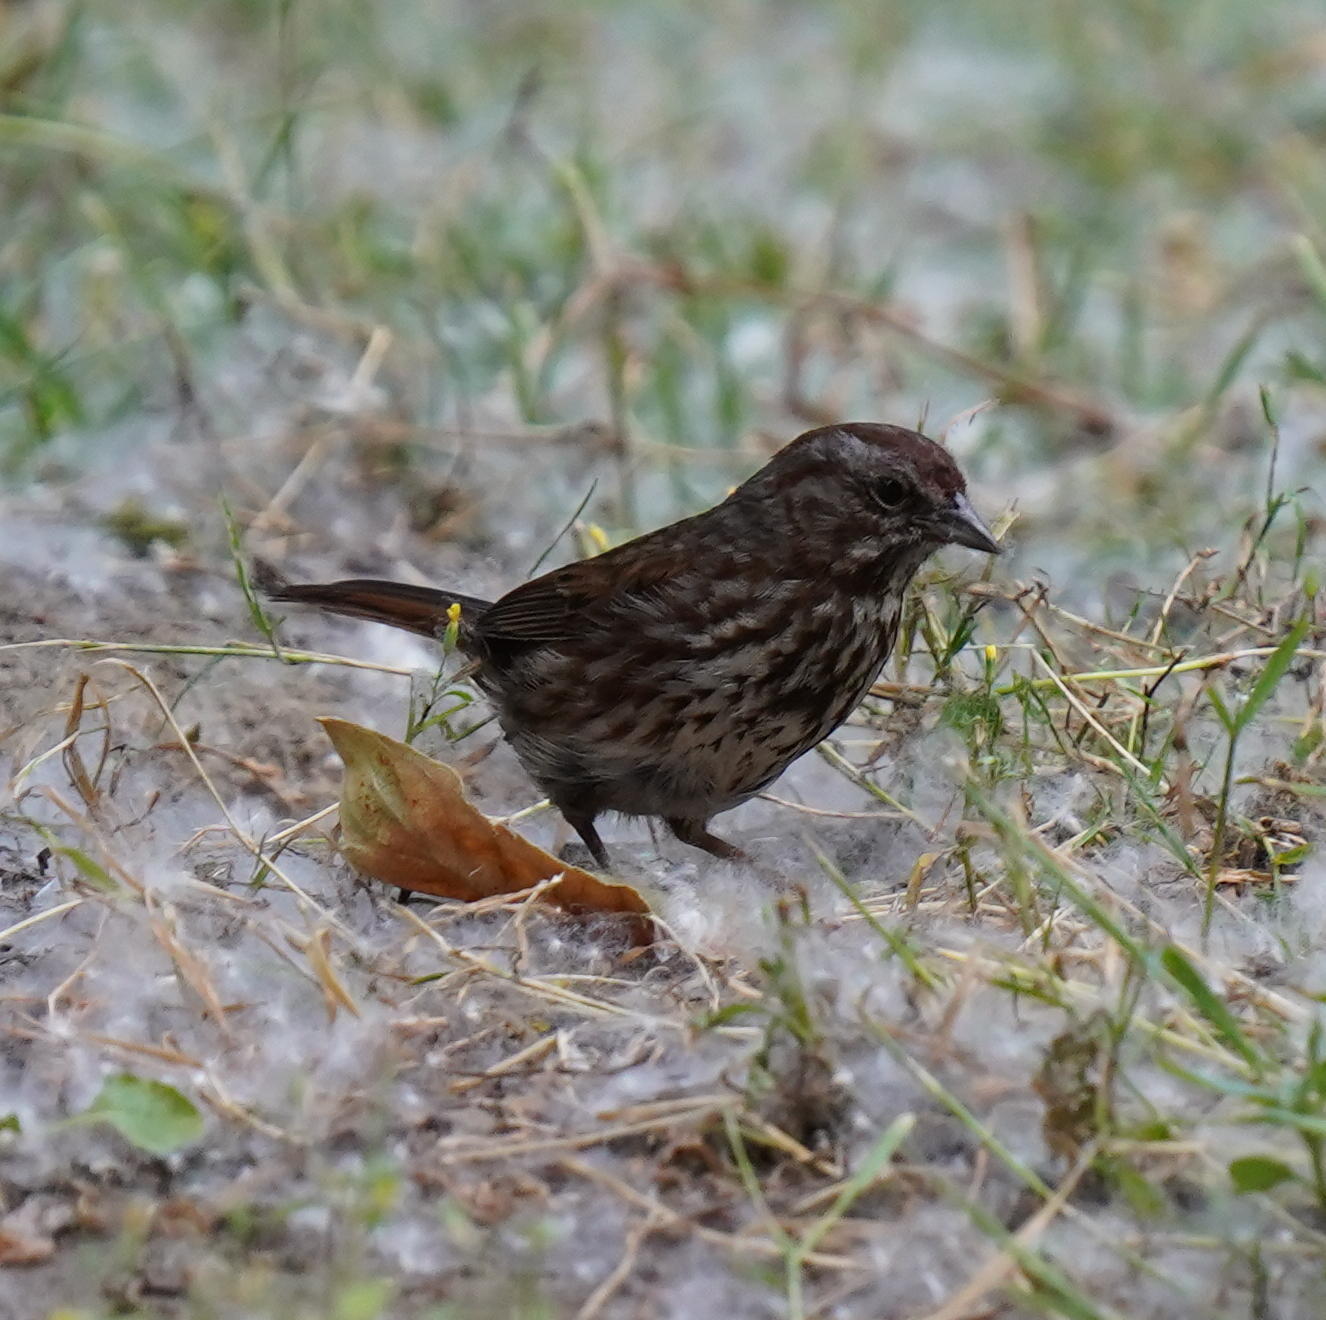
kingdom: Animalia
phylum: Chordata
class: Aves
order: Passeriformes
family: Passerellidae
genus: Melospiza
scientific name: Melospiza melodia
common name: Song sparrow
